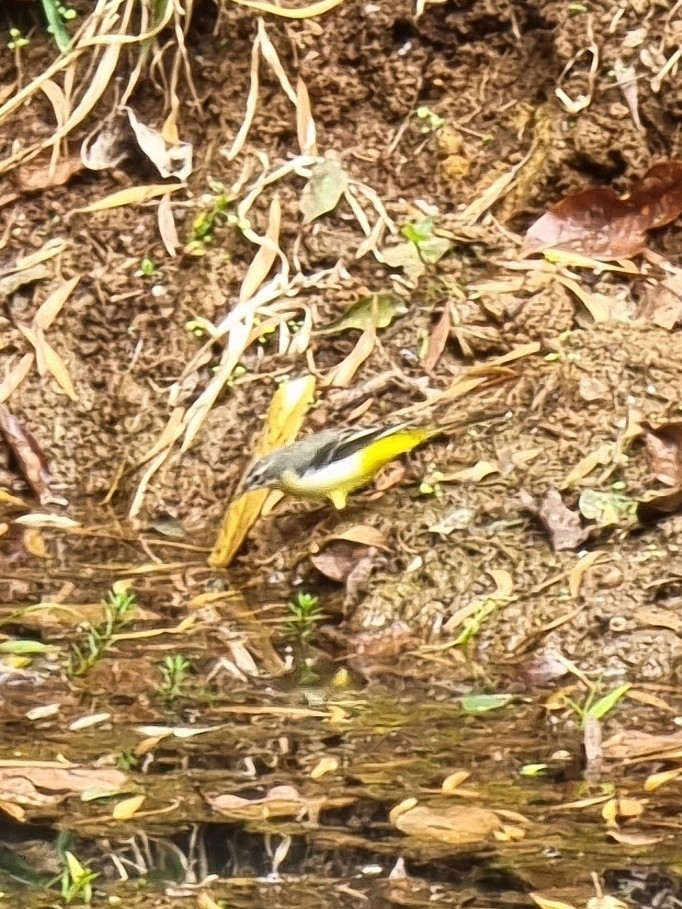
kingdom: Animalia
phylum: Chordata
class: Aves
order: Passeriformes
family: Motacillidae
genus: Motacilla
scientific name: Motacilla cinerea
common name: Grey wagtail
